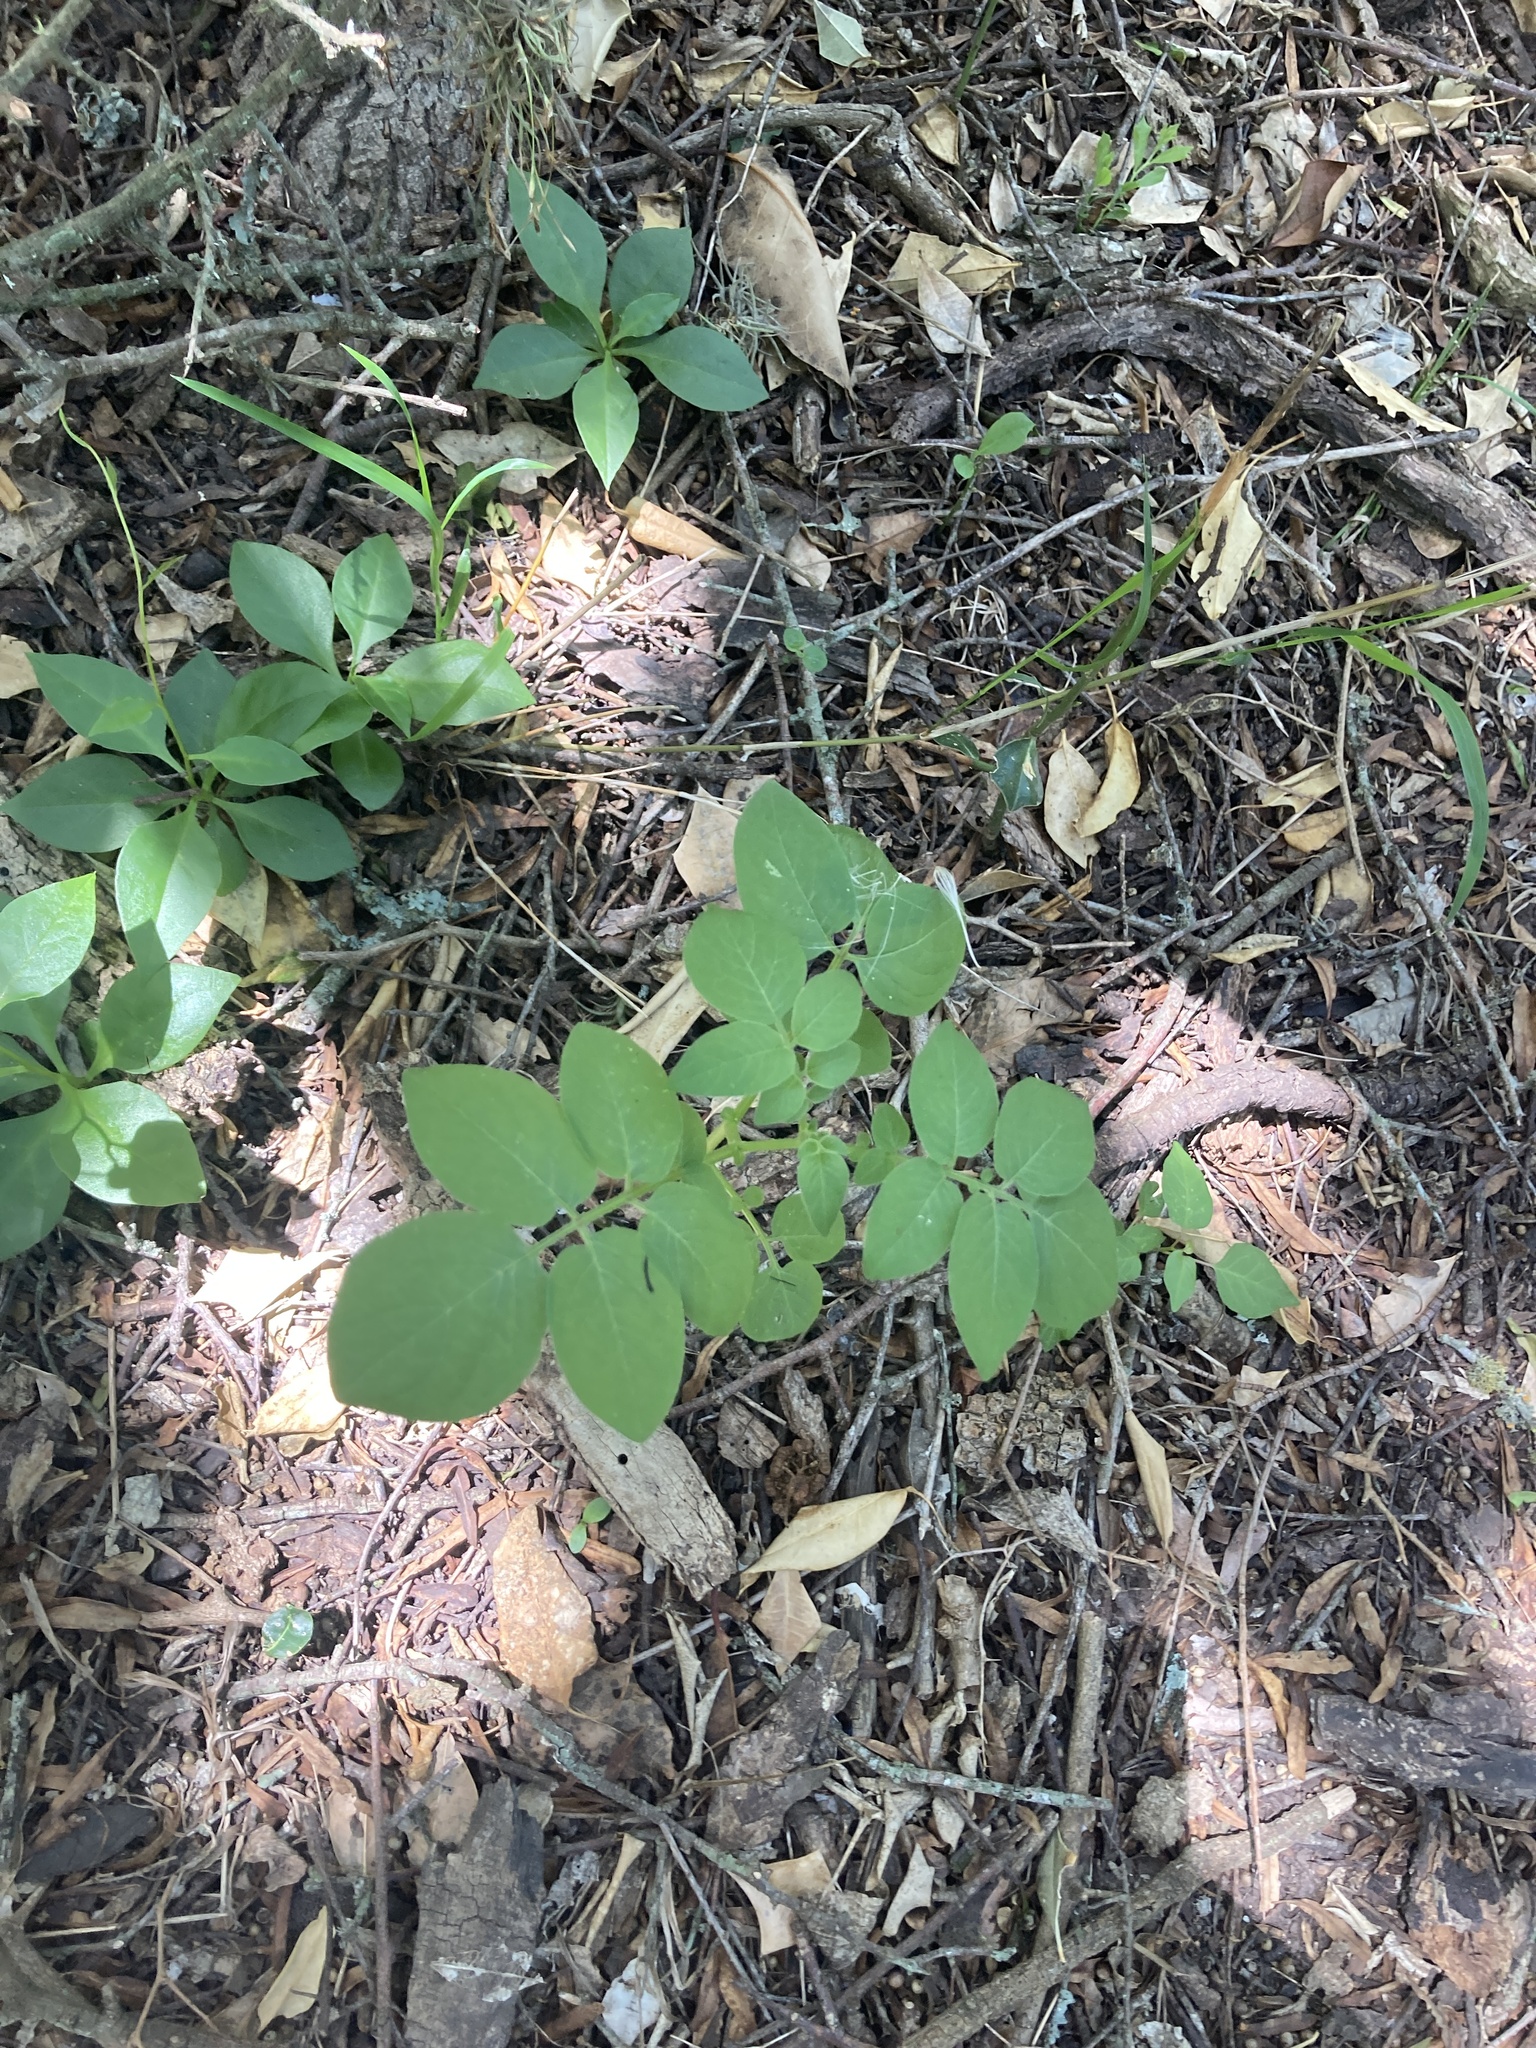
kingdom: Plantae
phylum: Tracheophyta
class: Magnoliopsida
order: Solanales
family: Solanaceae
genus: Solanum
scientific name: Solanum chacoense
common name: Chaco potato
